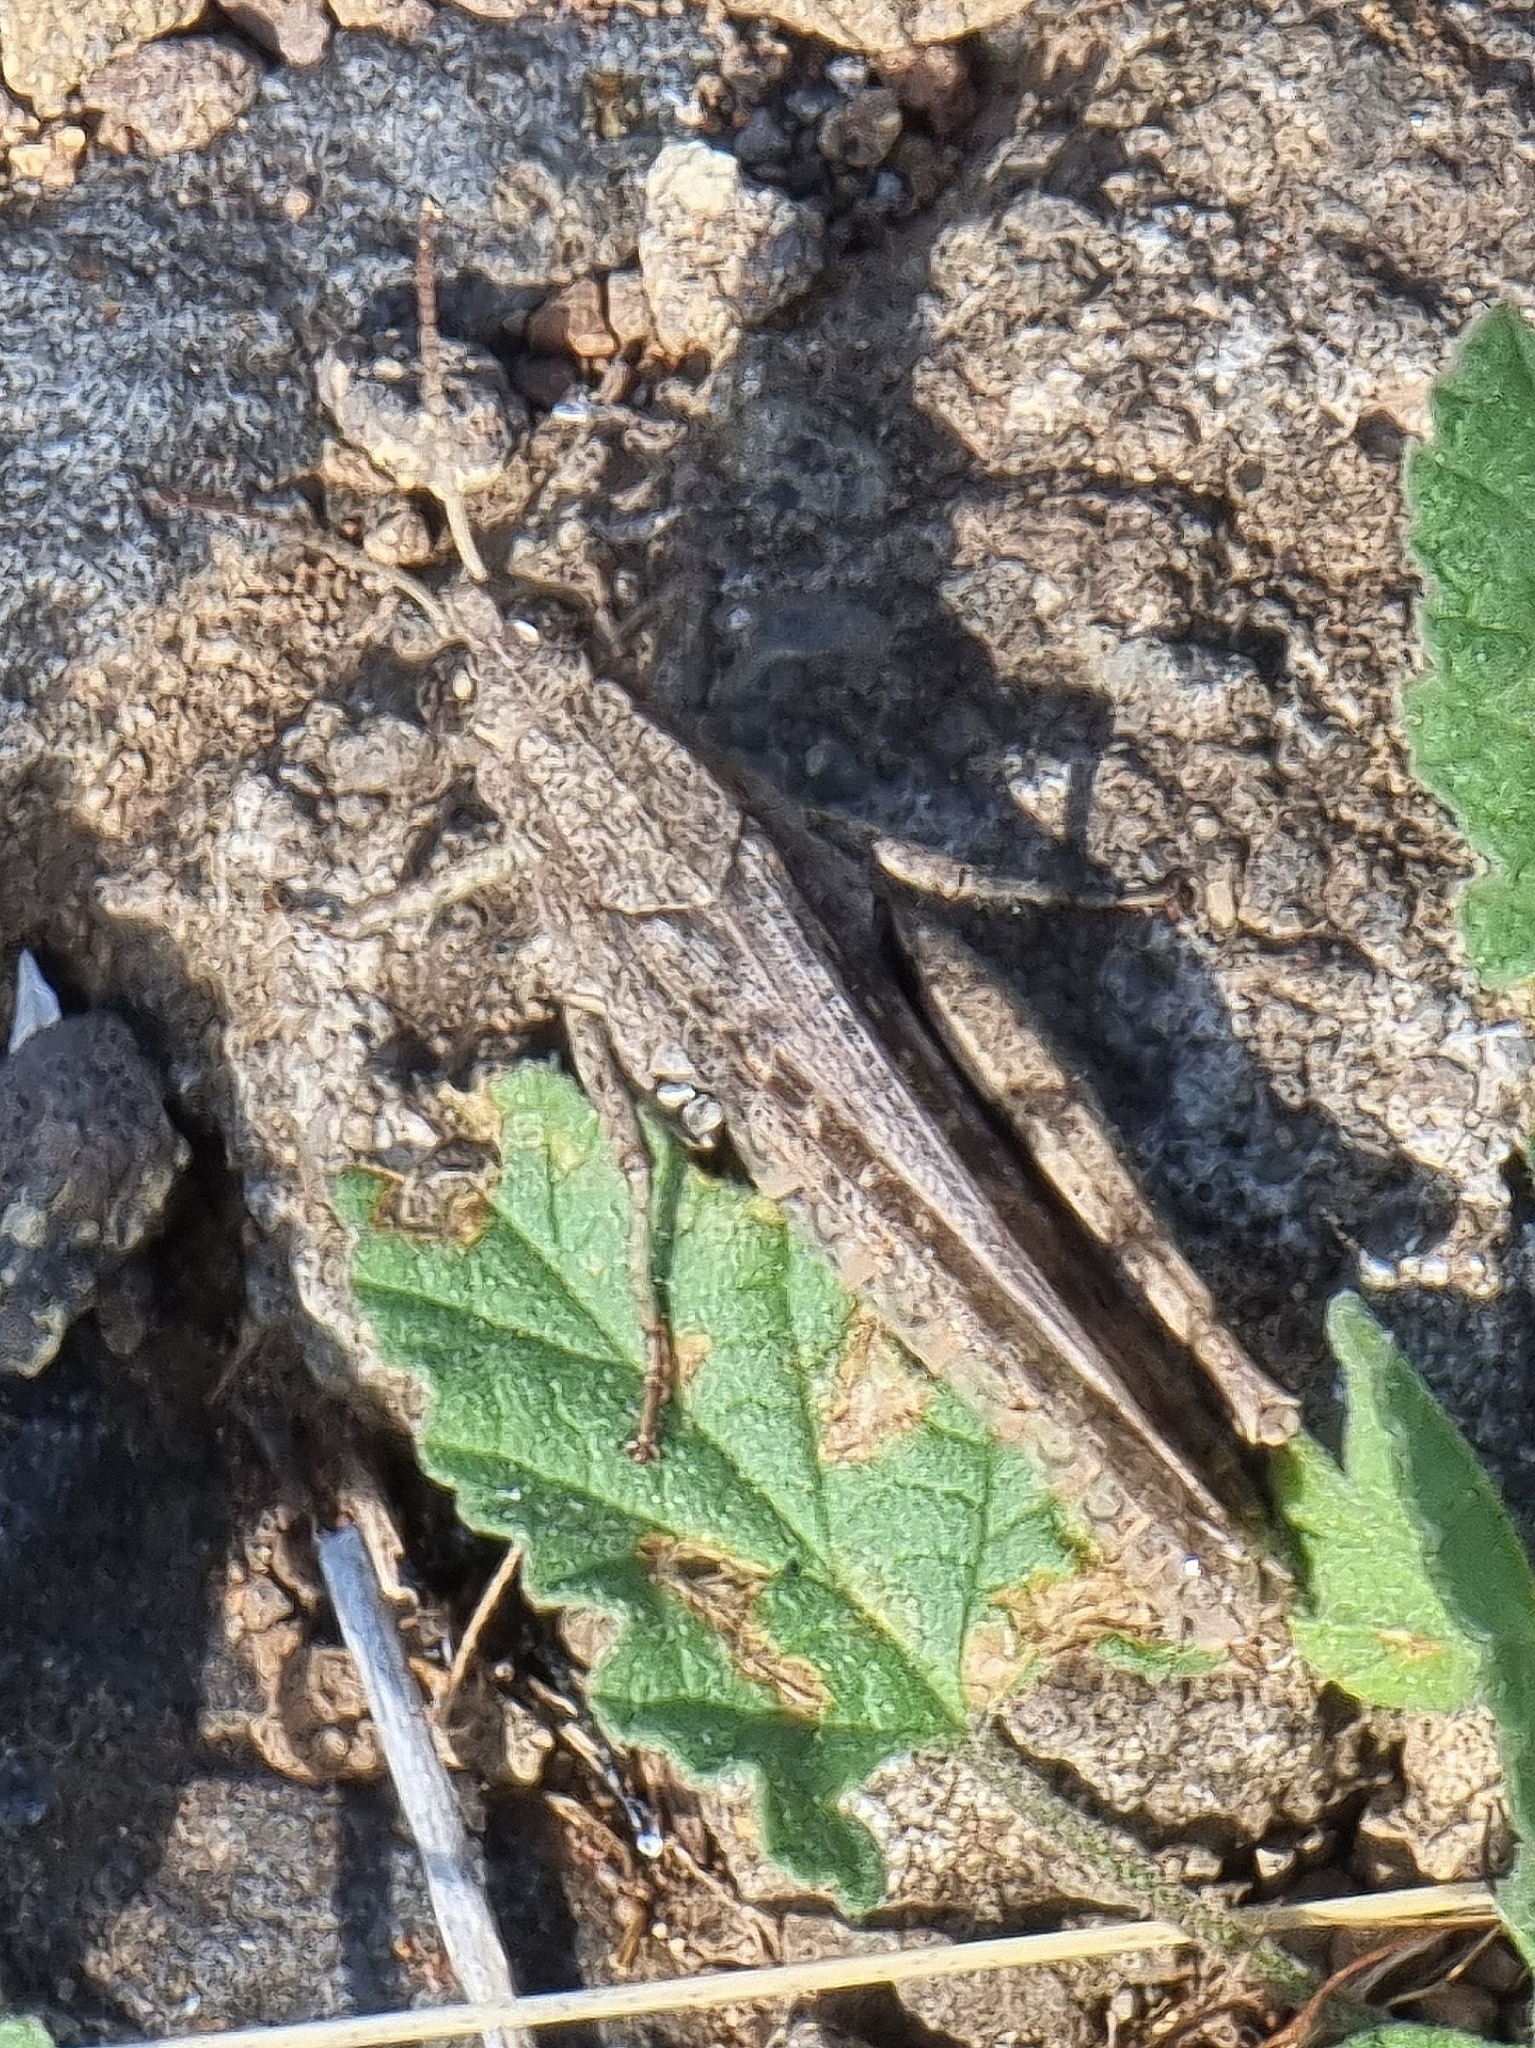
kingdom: Animalia
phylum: Arthropoda
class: Insecta
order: Orthoptera
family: Acrididae
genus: Calliptamus
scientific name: Calliptamus madeirae
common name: Madeira pincer grasshopper
